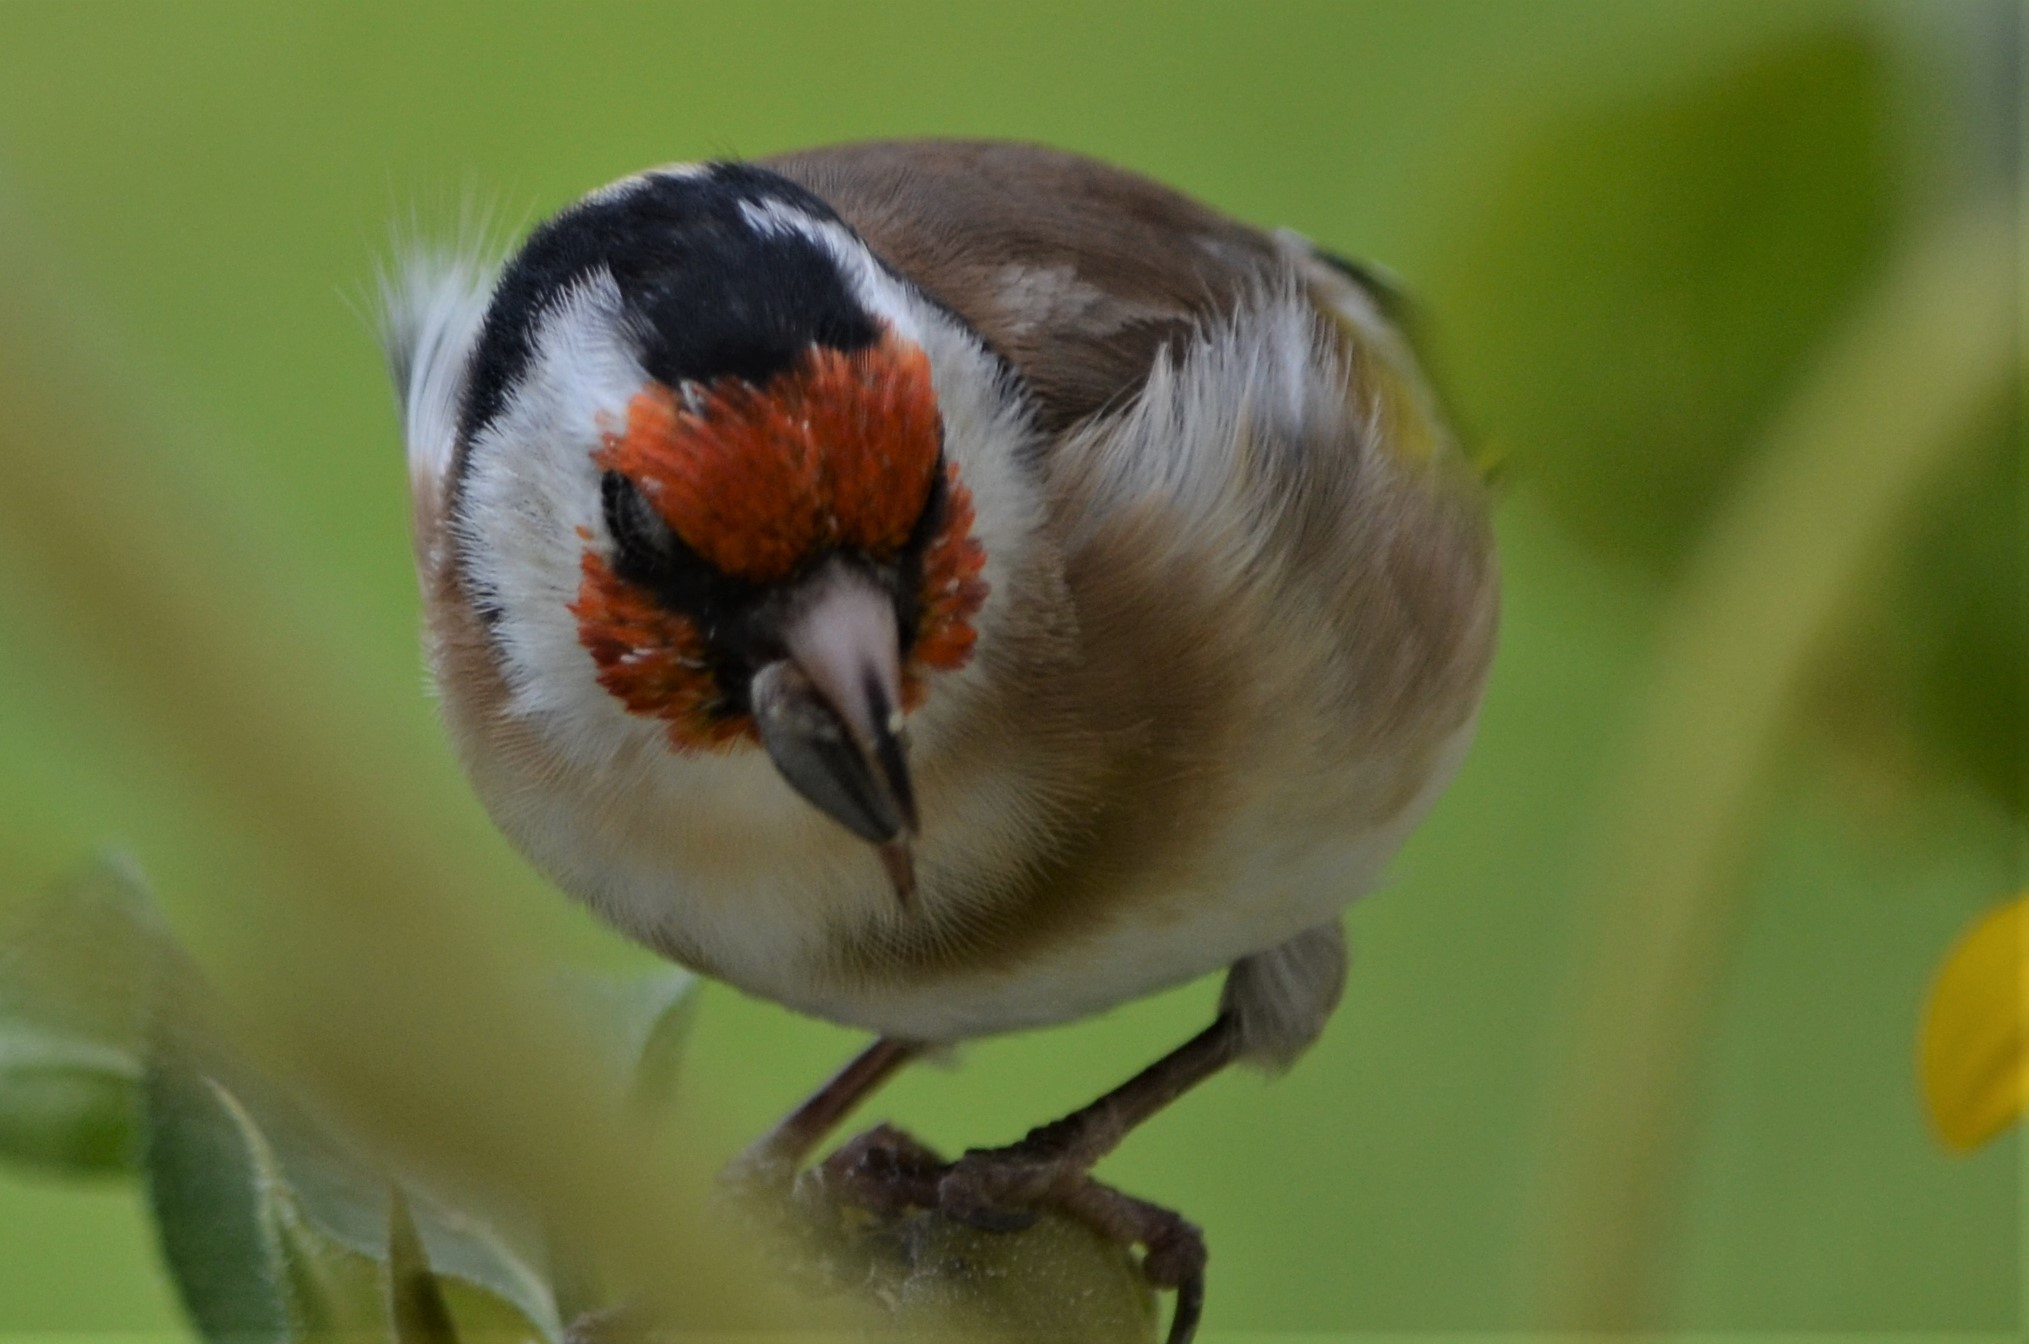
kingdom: Animalia
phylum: Chordata
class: Aves
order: Passeriformes
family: Fringillidae
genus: Carduelis
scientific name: Carduelis carduelis
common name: European goldfinch
